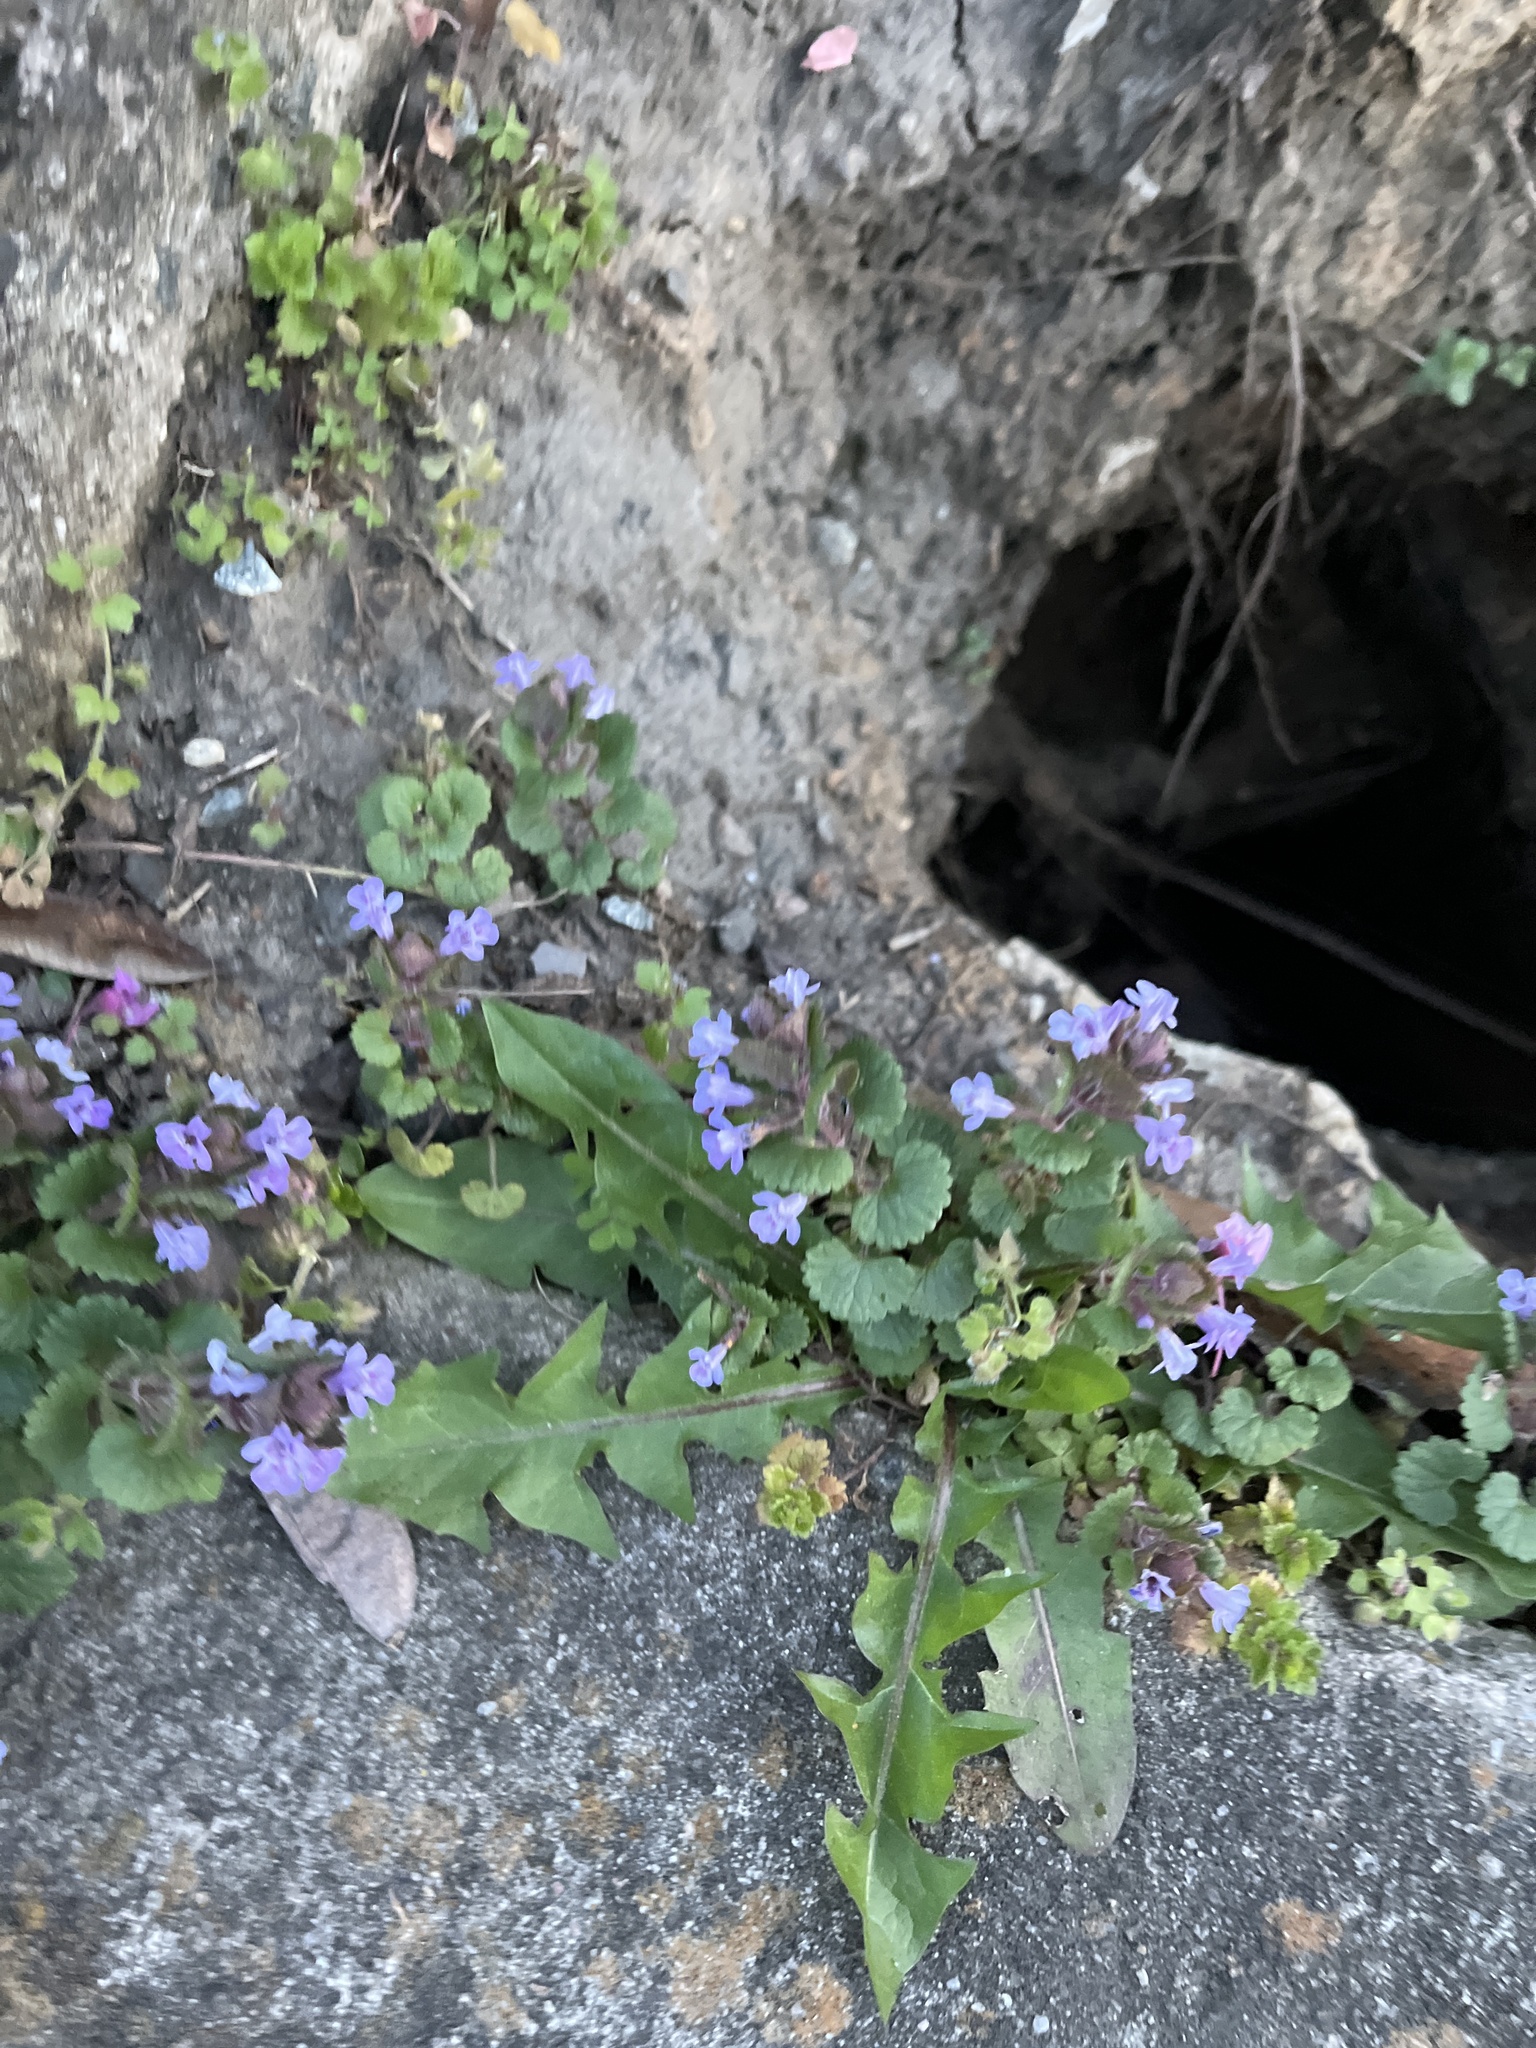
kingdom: Plantae
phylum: Tracheophyta
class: Magnoliopsida
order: Lamiales
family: Lamiaceae
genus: Glechoma
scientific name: Glechoma hederacea
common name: Ground ivy
